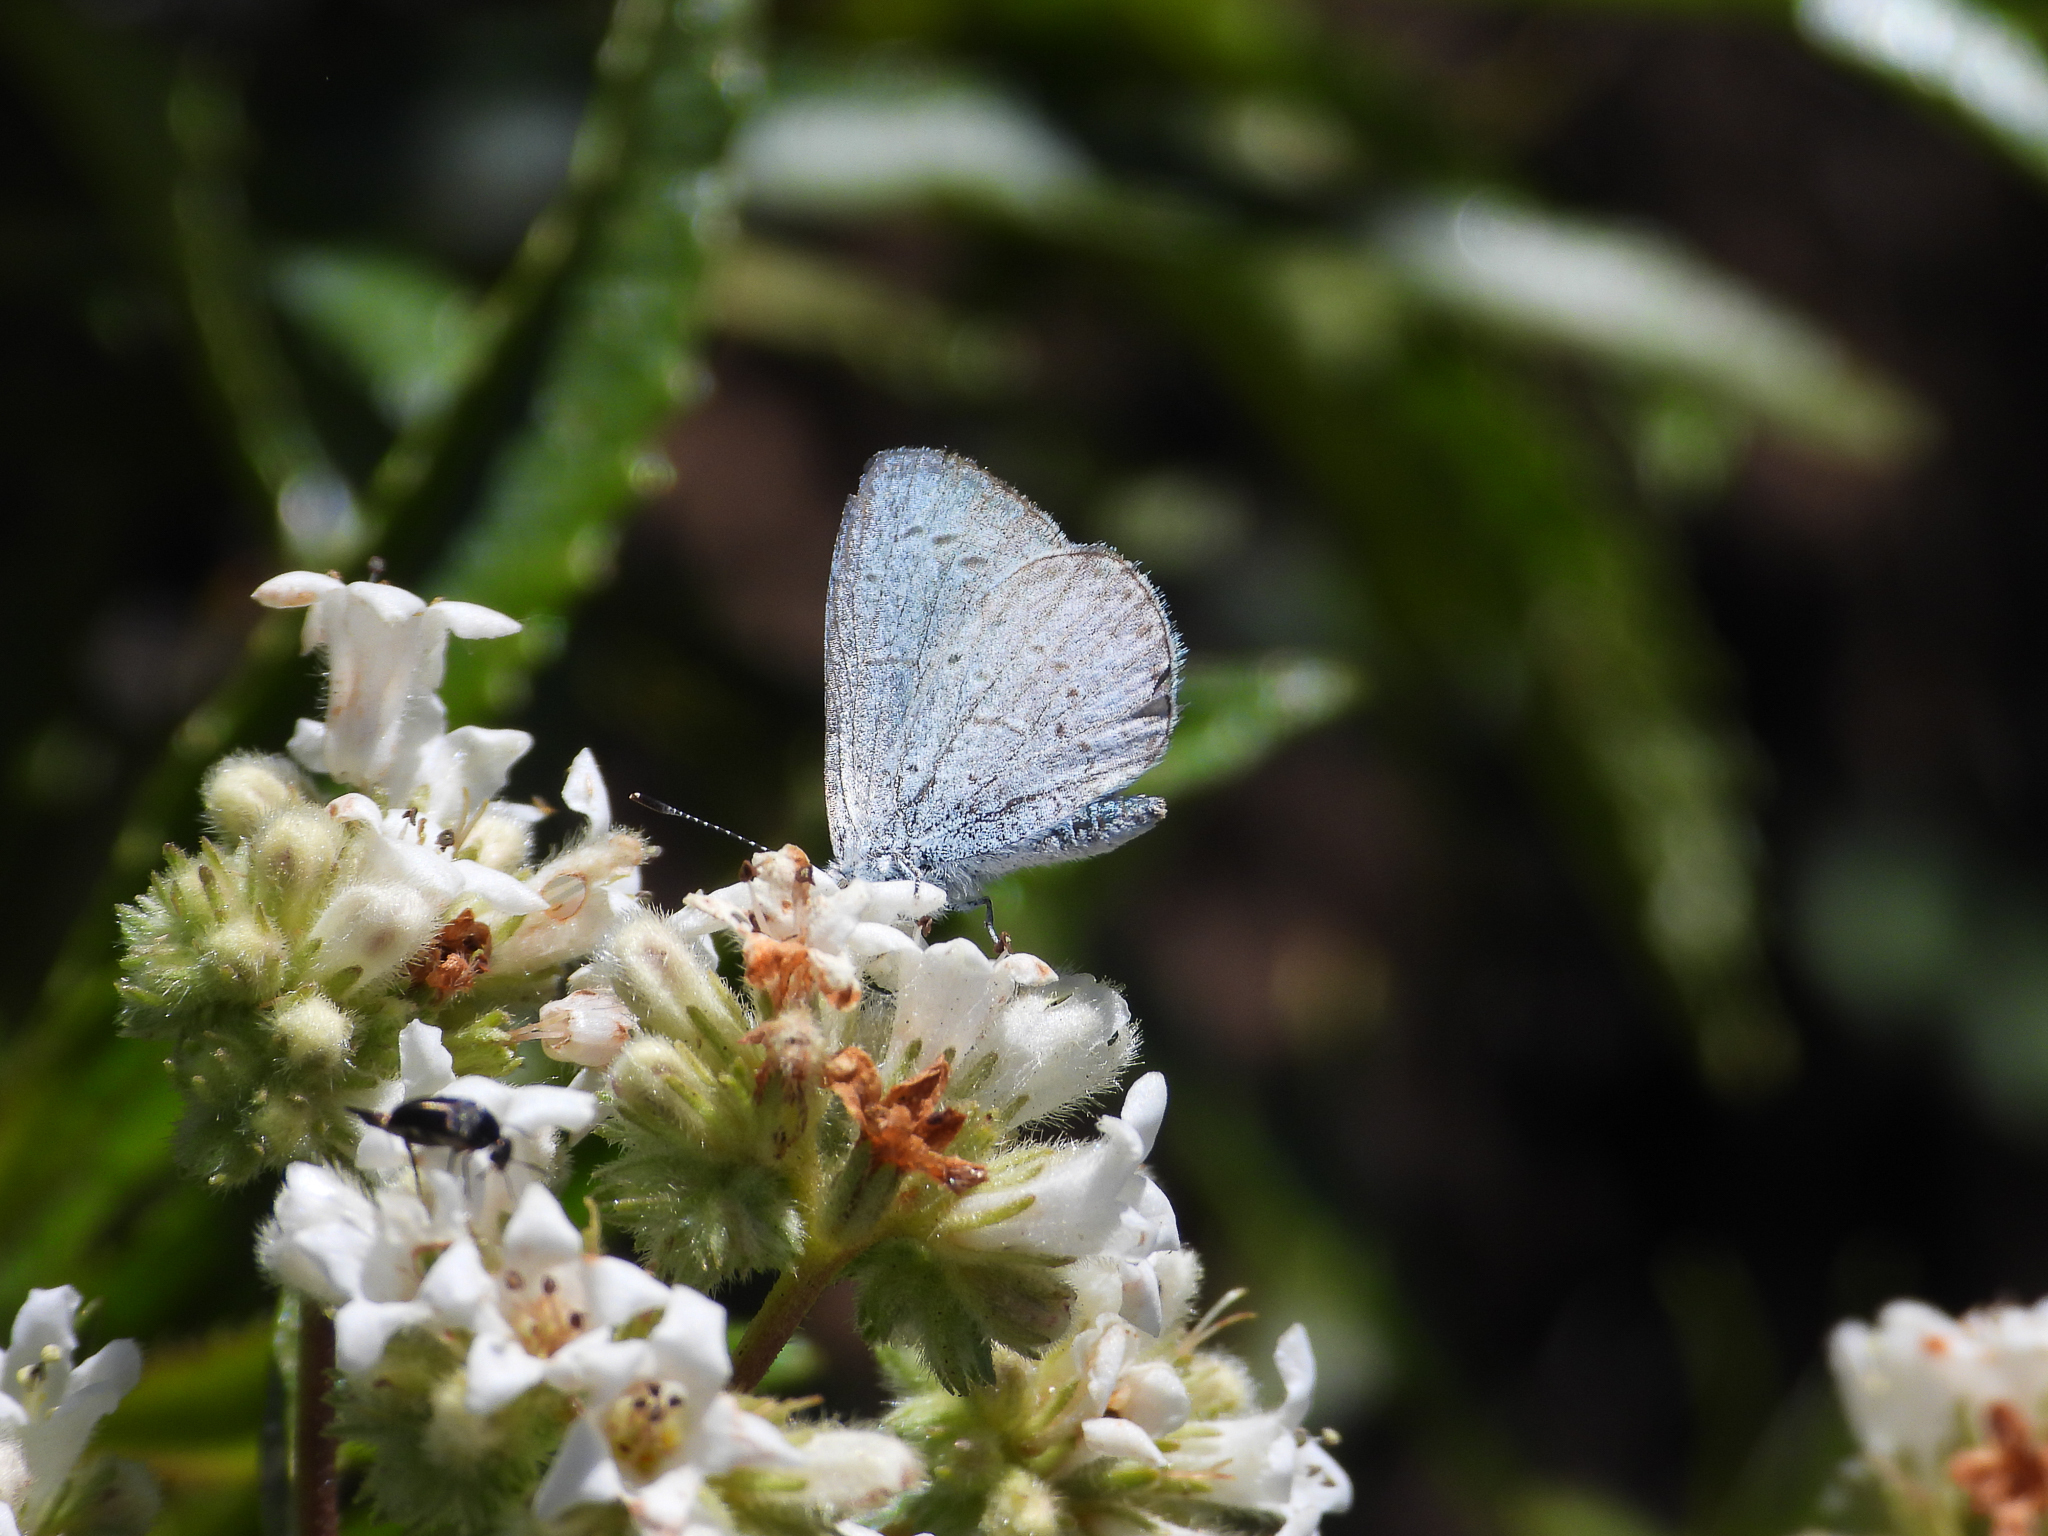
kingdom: Animalia
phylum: Arthropoda
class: Insecta
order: Lepidoptera
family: Lycaenidae
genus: Celastrina
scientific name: Celastrina ladon
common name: Spring azure
